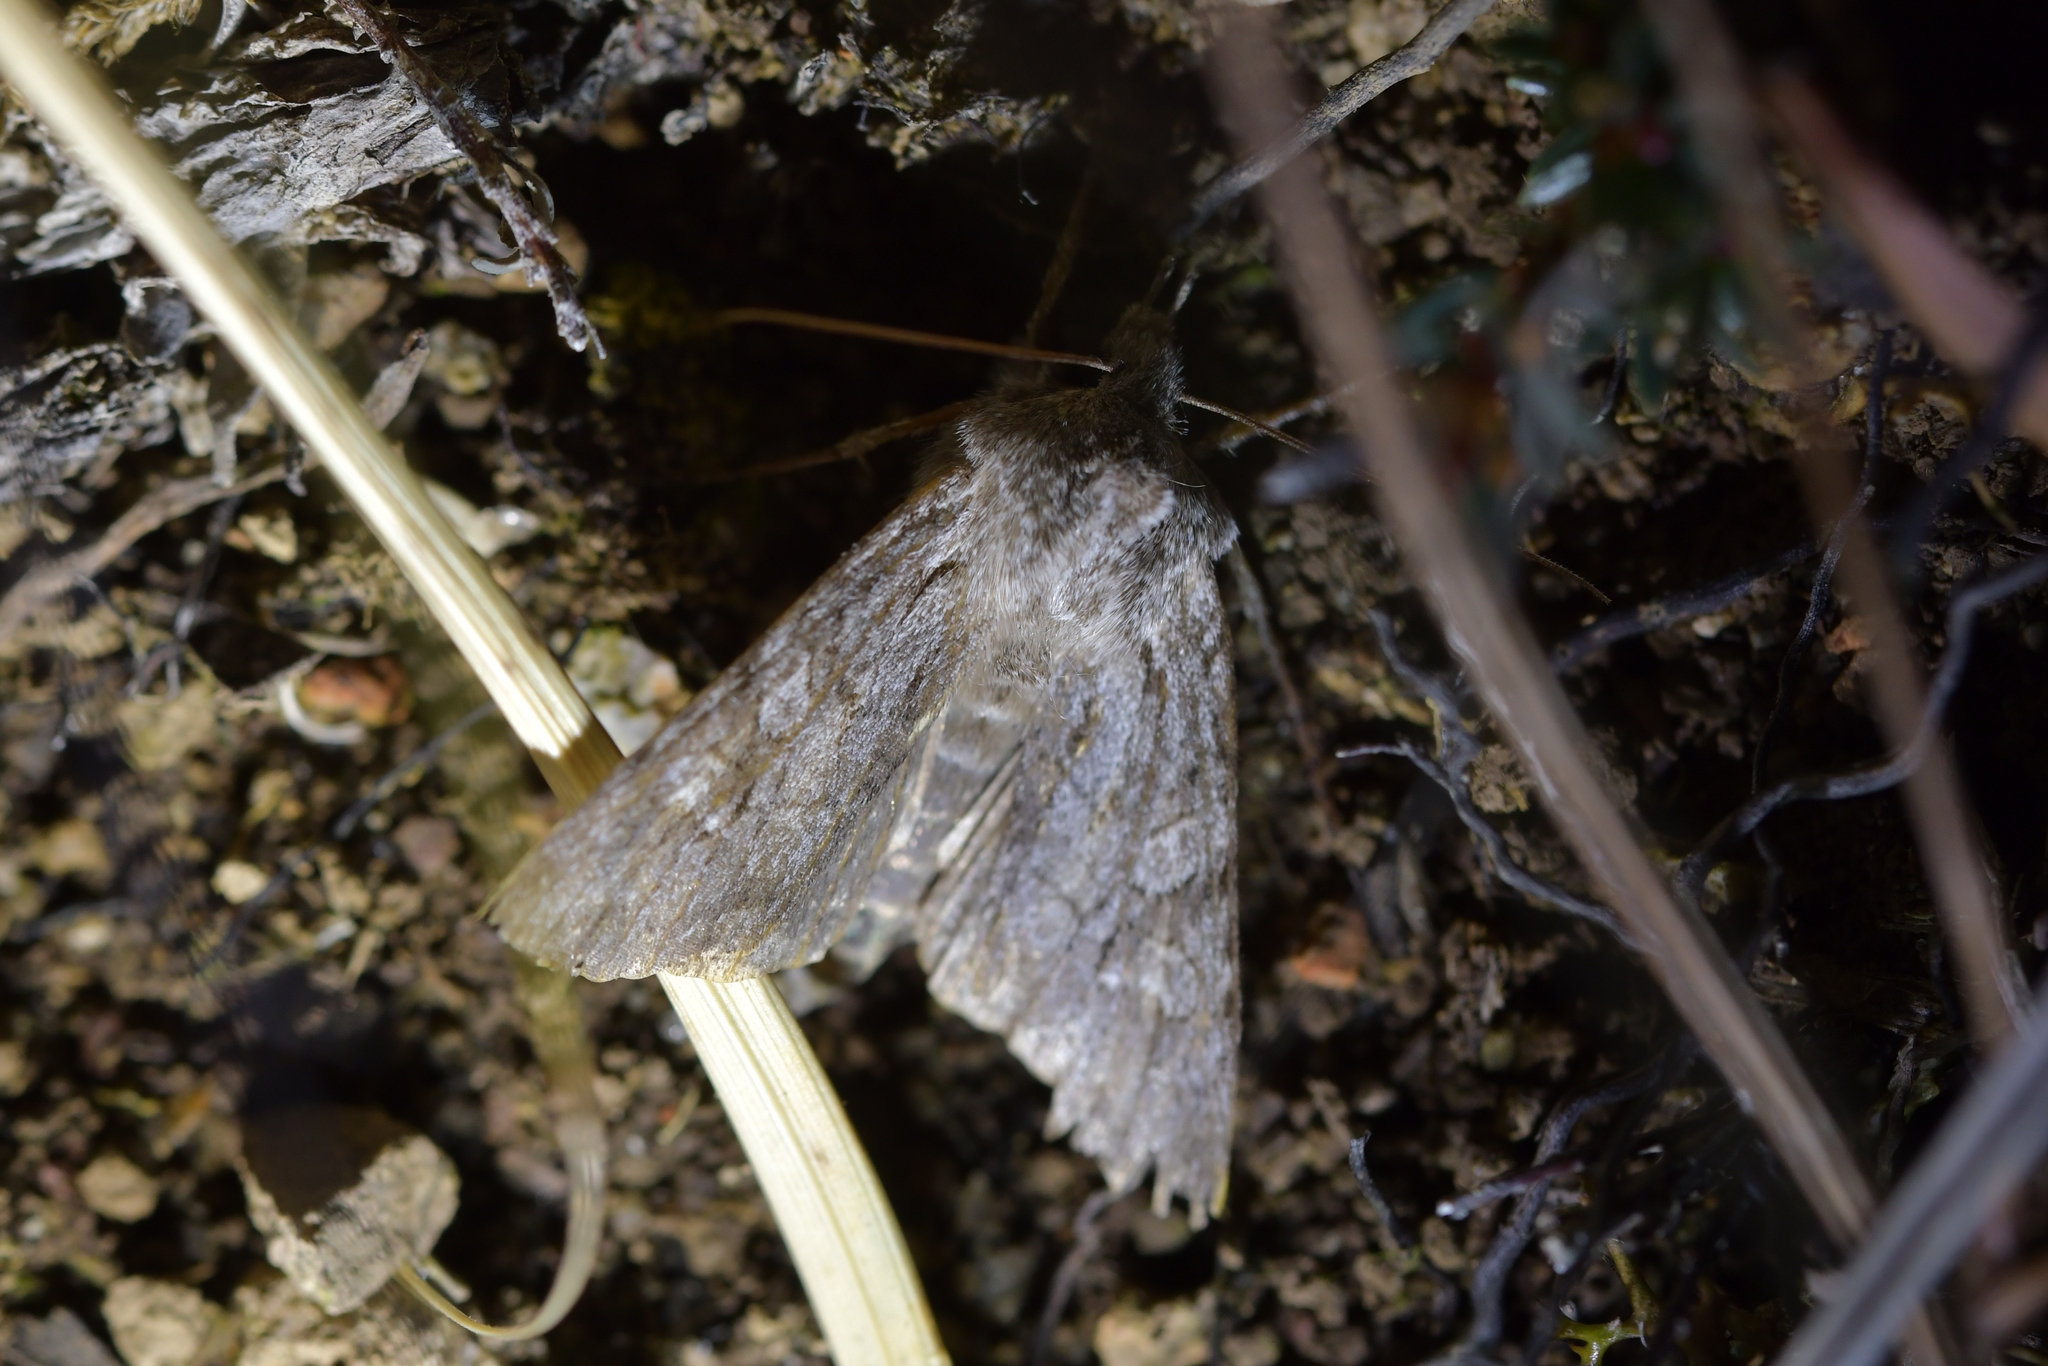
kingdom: Animalia
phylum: Arthropoda
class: Insecta
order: Lepidoptera
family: Noctuidae
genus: Physetica
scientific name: Physetica longstaffii
